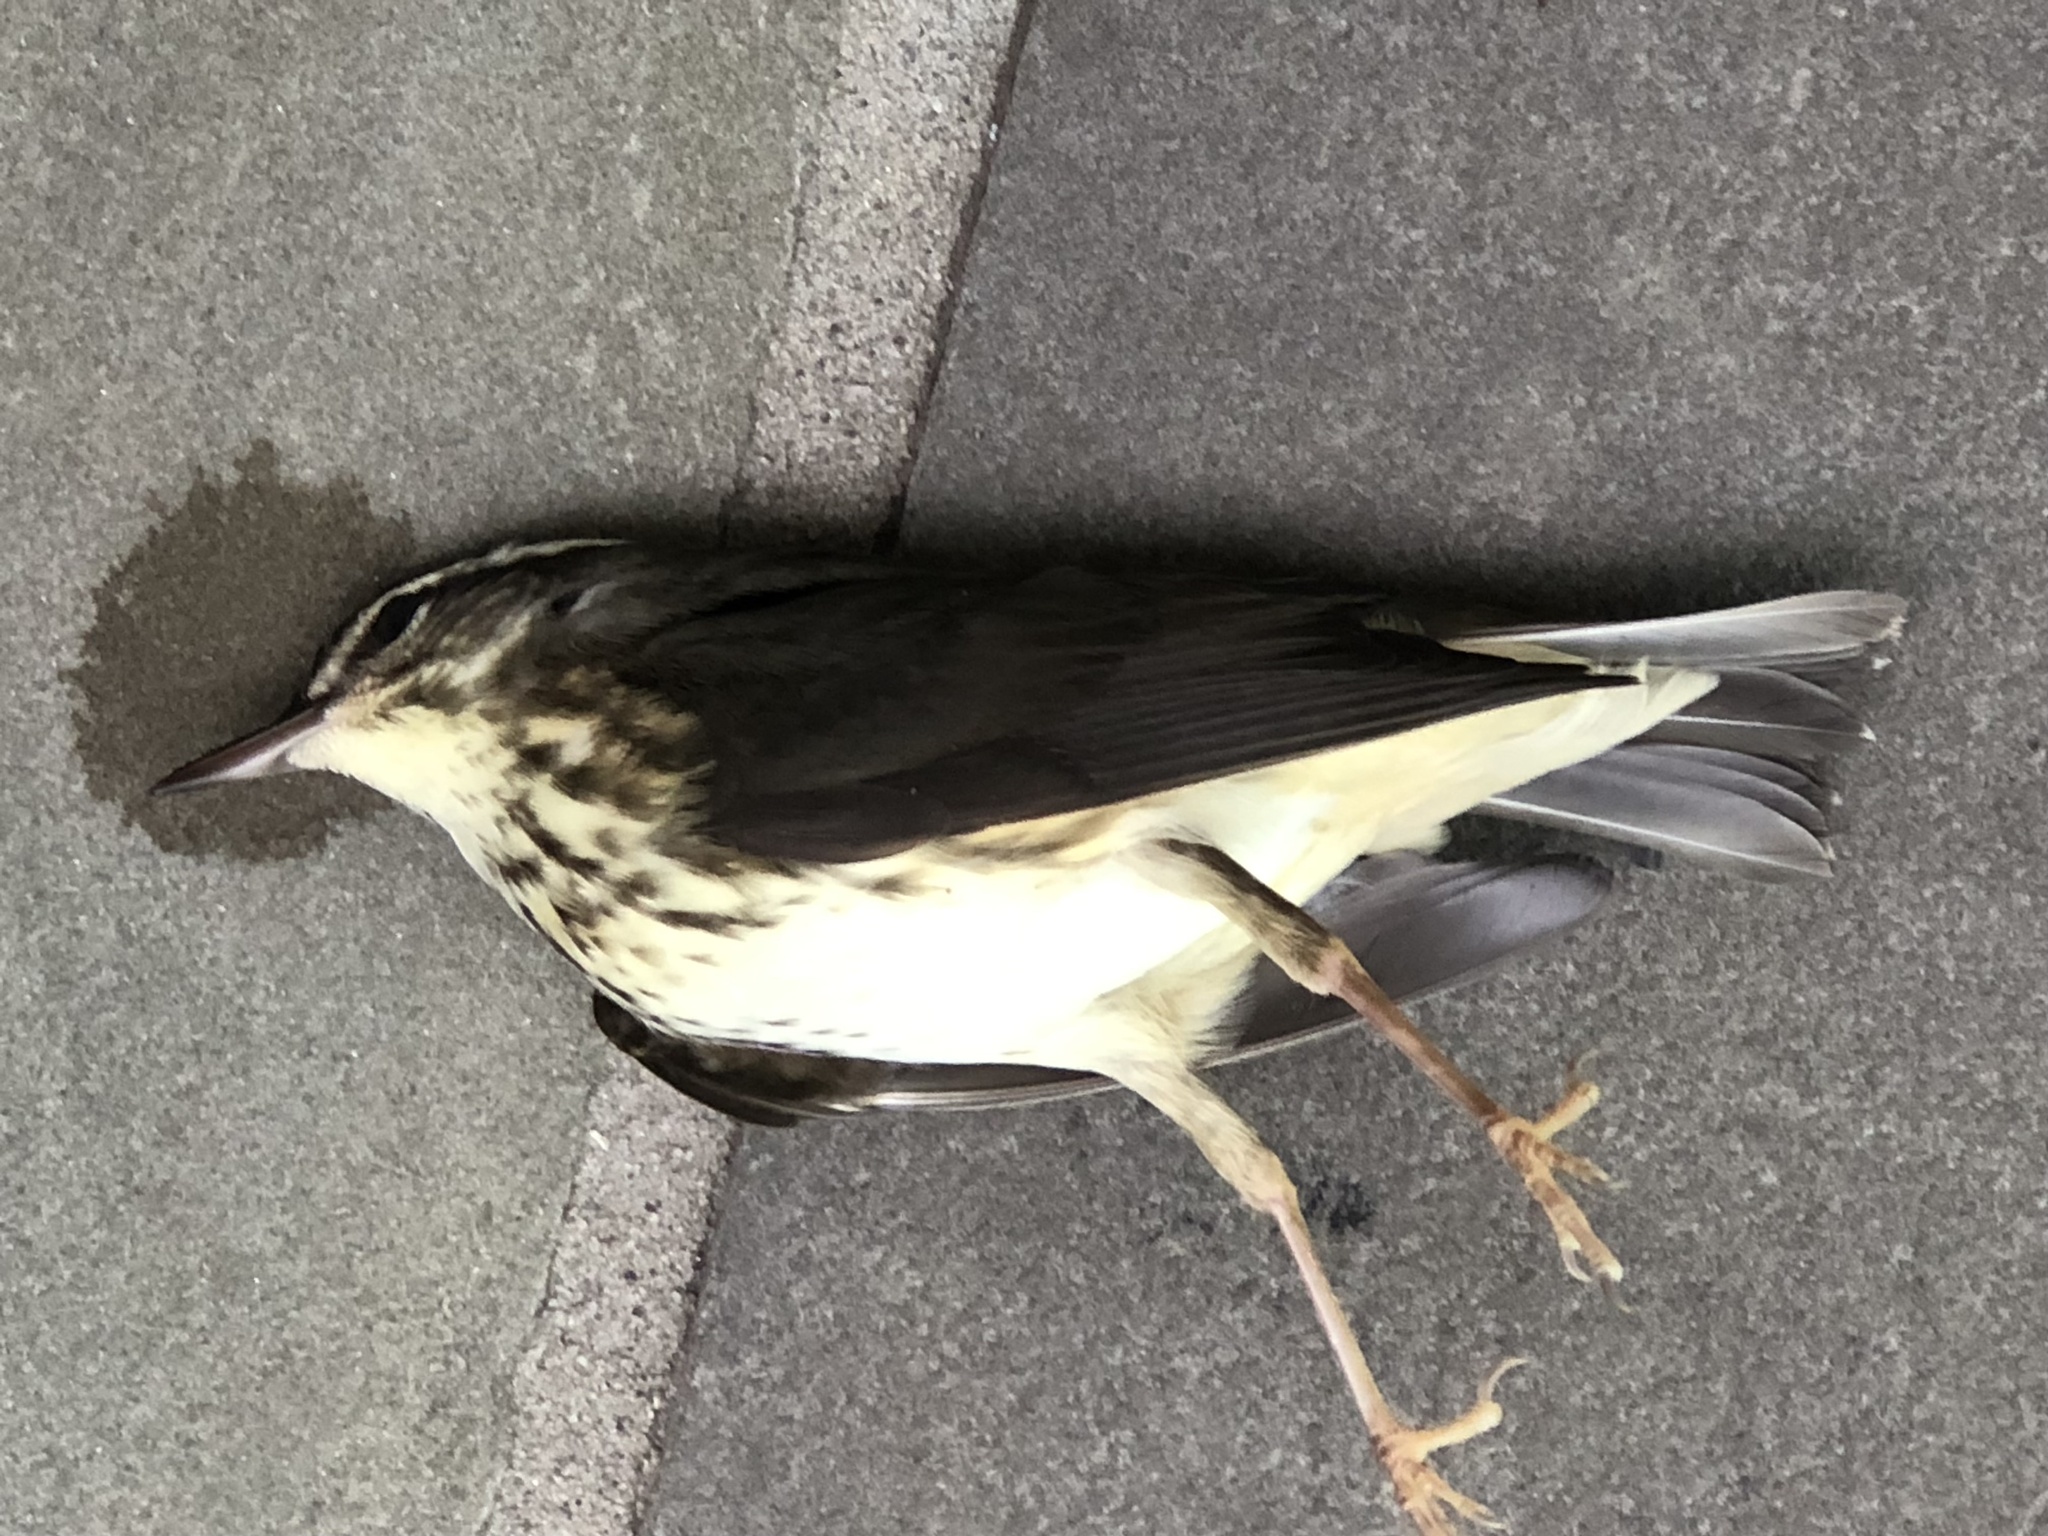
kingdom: Animalia
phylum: Chordata
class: Aves
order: Passeriformes
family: Parulidae
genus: Parkesia
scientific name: Parkesia motacilla
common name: Louisiana waterthrush
